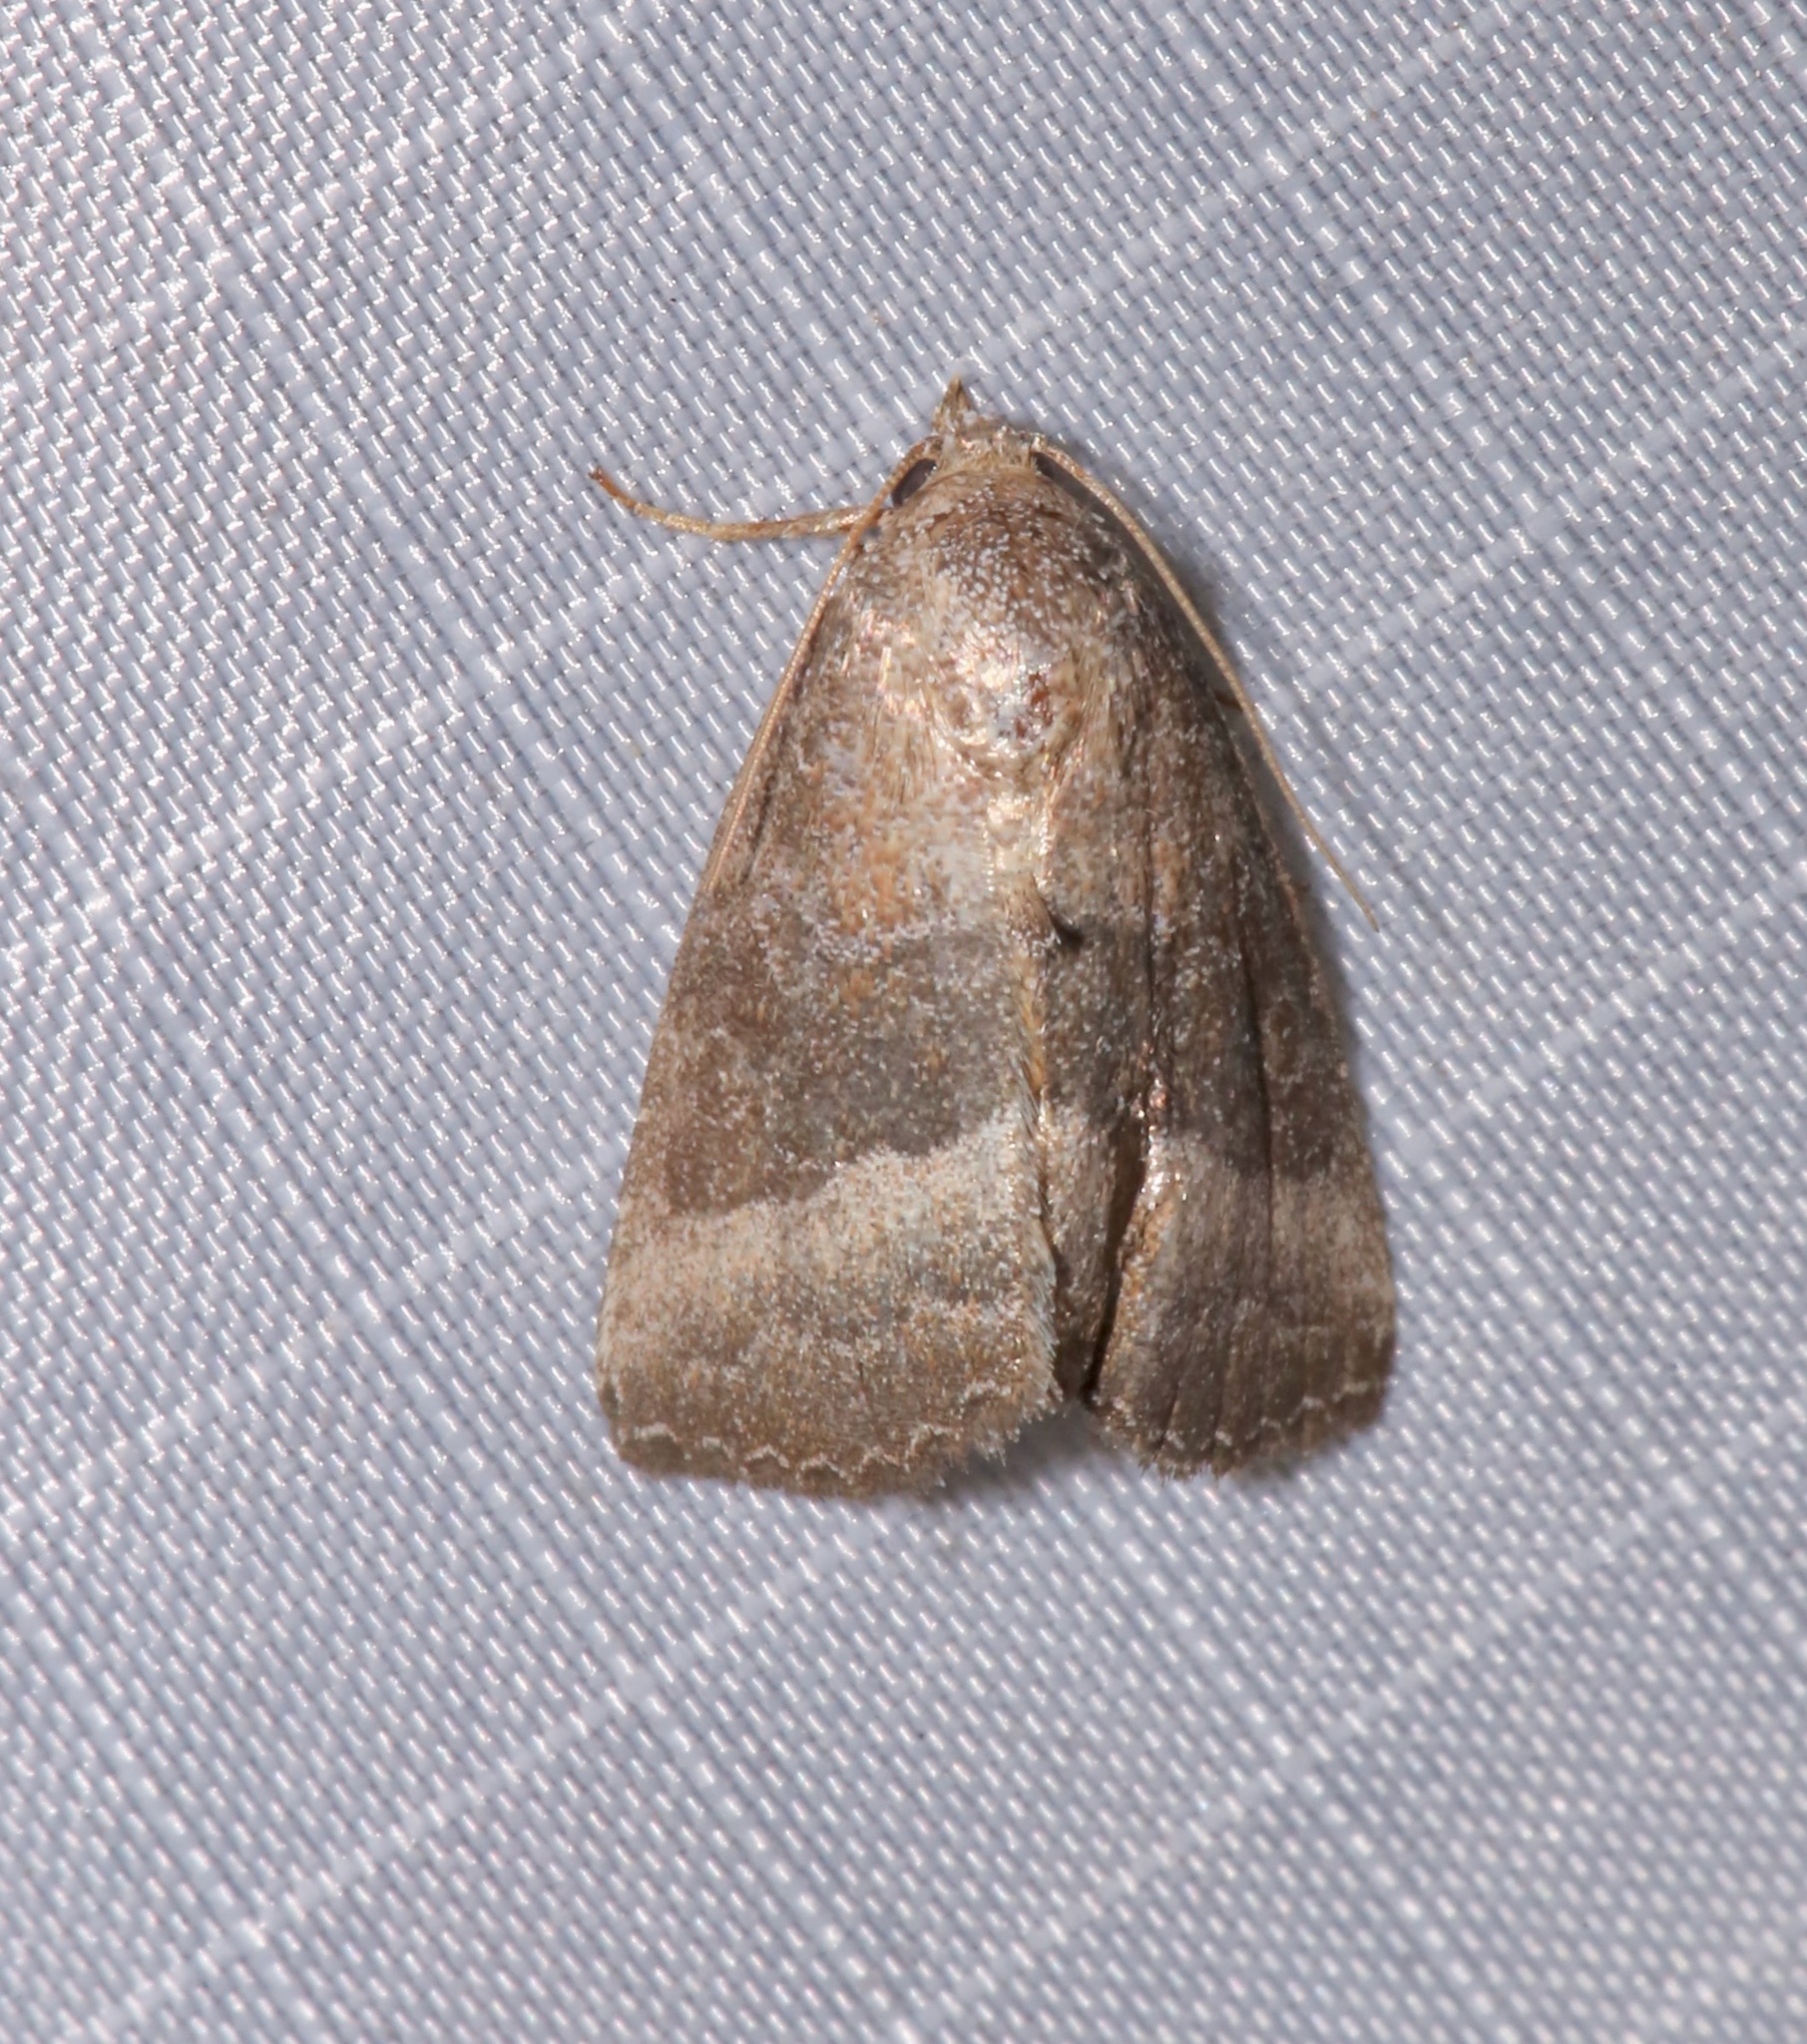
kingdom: Animalia
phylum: Arthropoda
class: Insecta
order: Lepidoptera
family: Noctuidae
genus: Ogdoconta
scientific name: Ogdoconta cinereola
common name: Common pinkband
